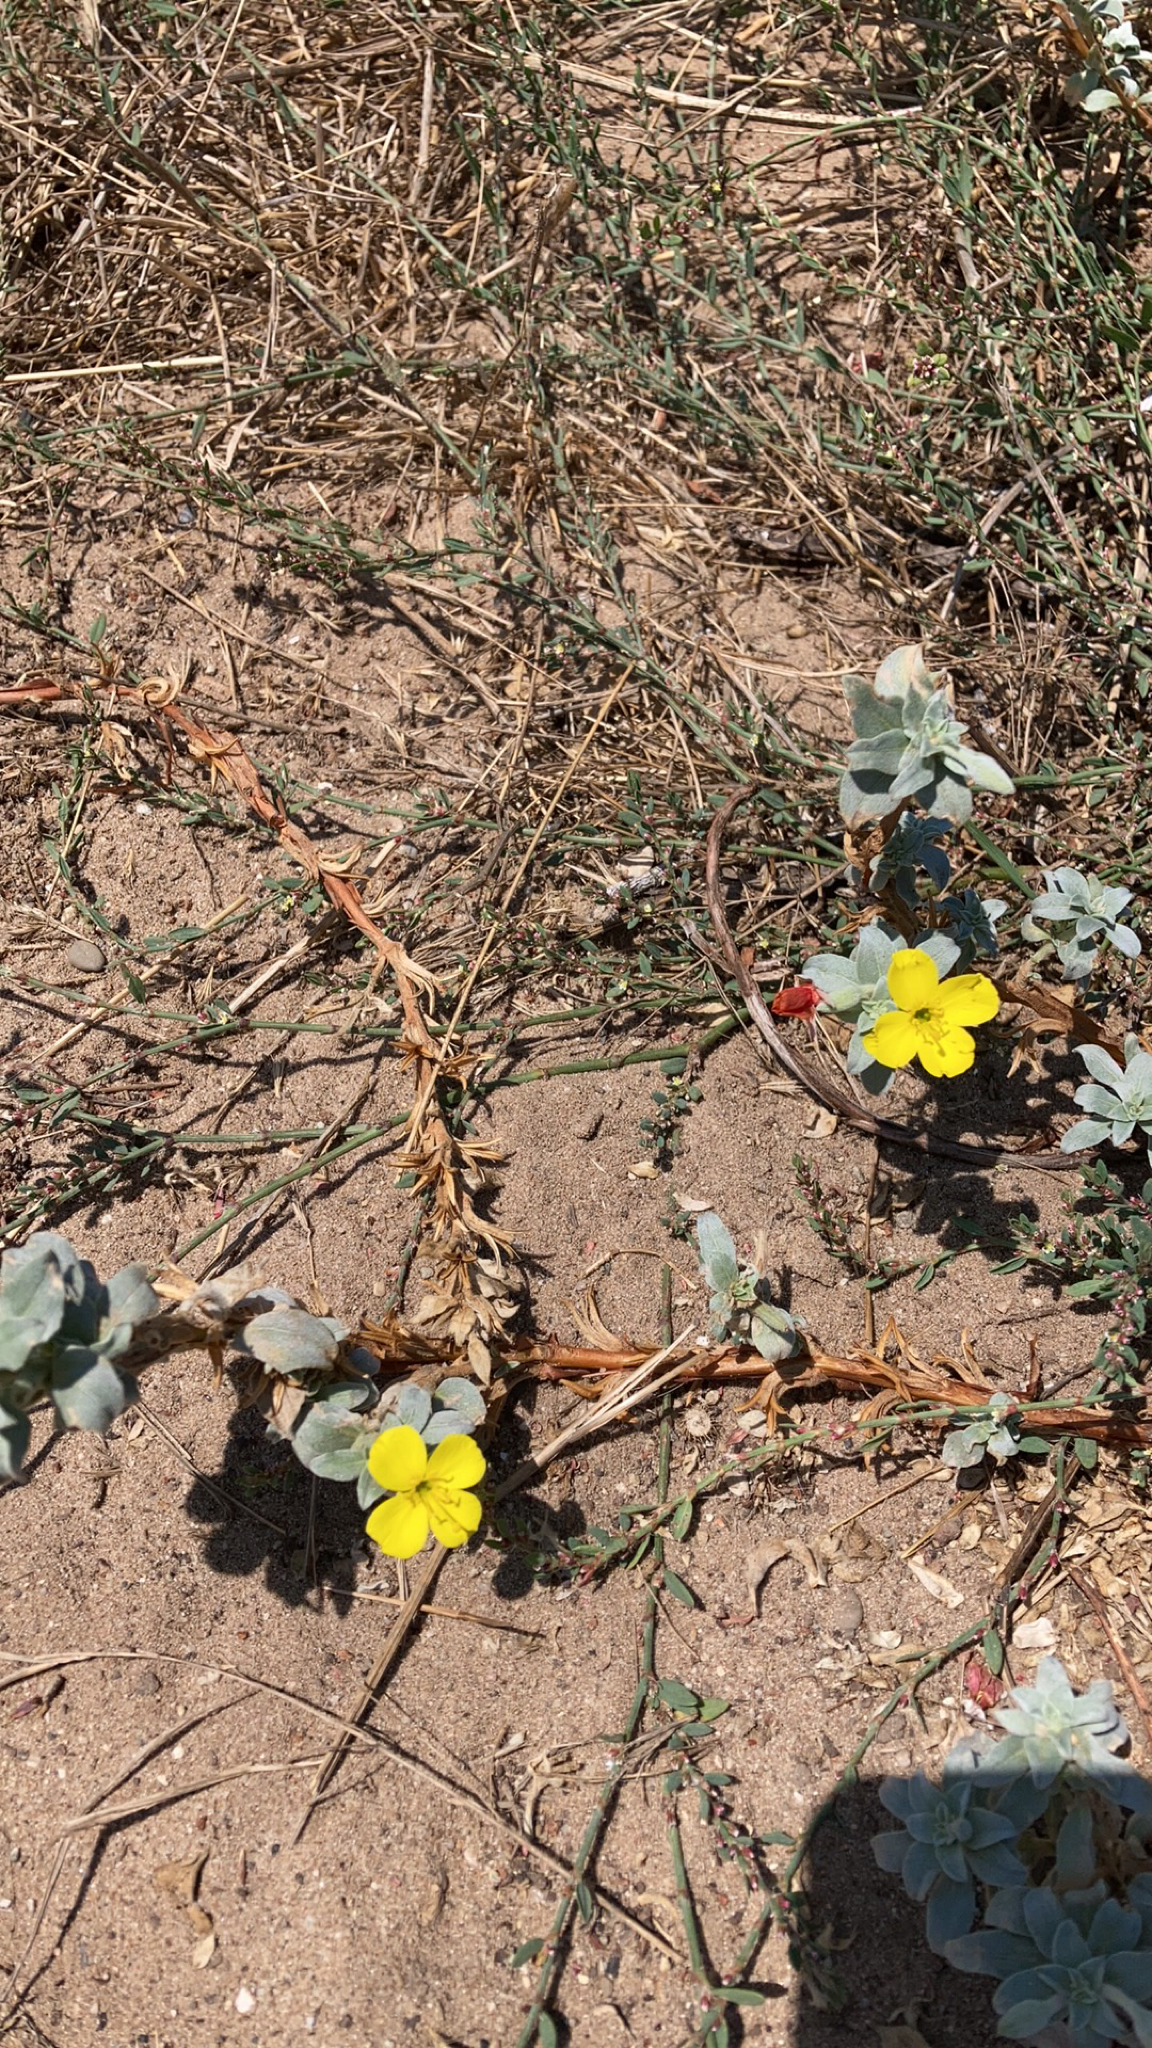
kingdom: Plantae
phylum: Tracheophyta
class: Magnoliopsida
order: Myrtales
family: Onagraceae
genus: Camissoniopsis
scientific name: Camissoniopsis cheiranthifolia
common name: Beach suncup
